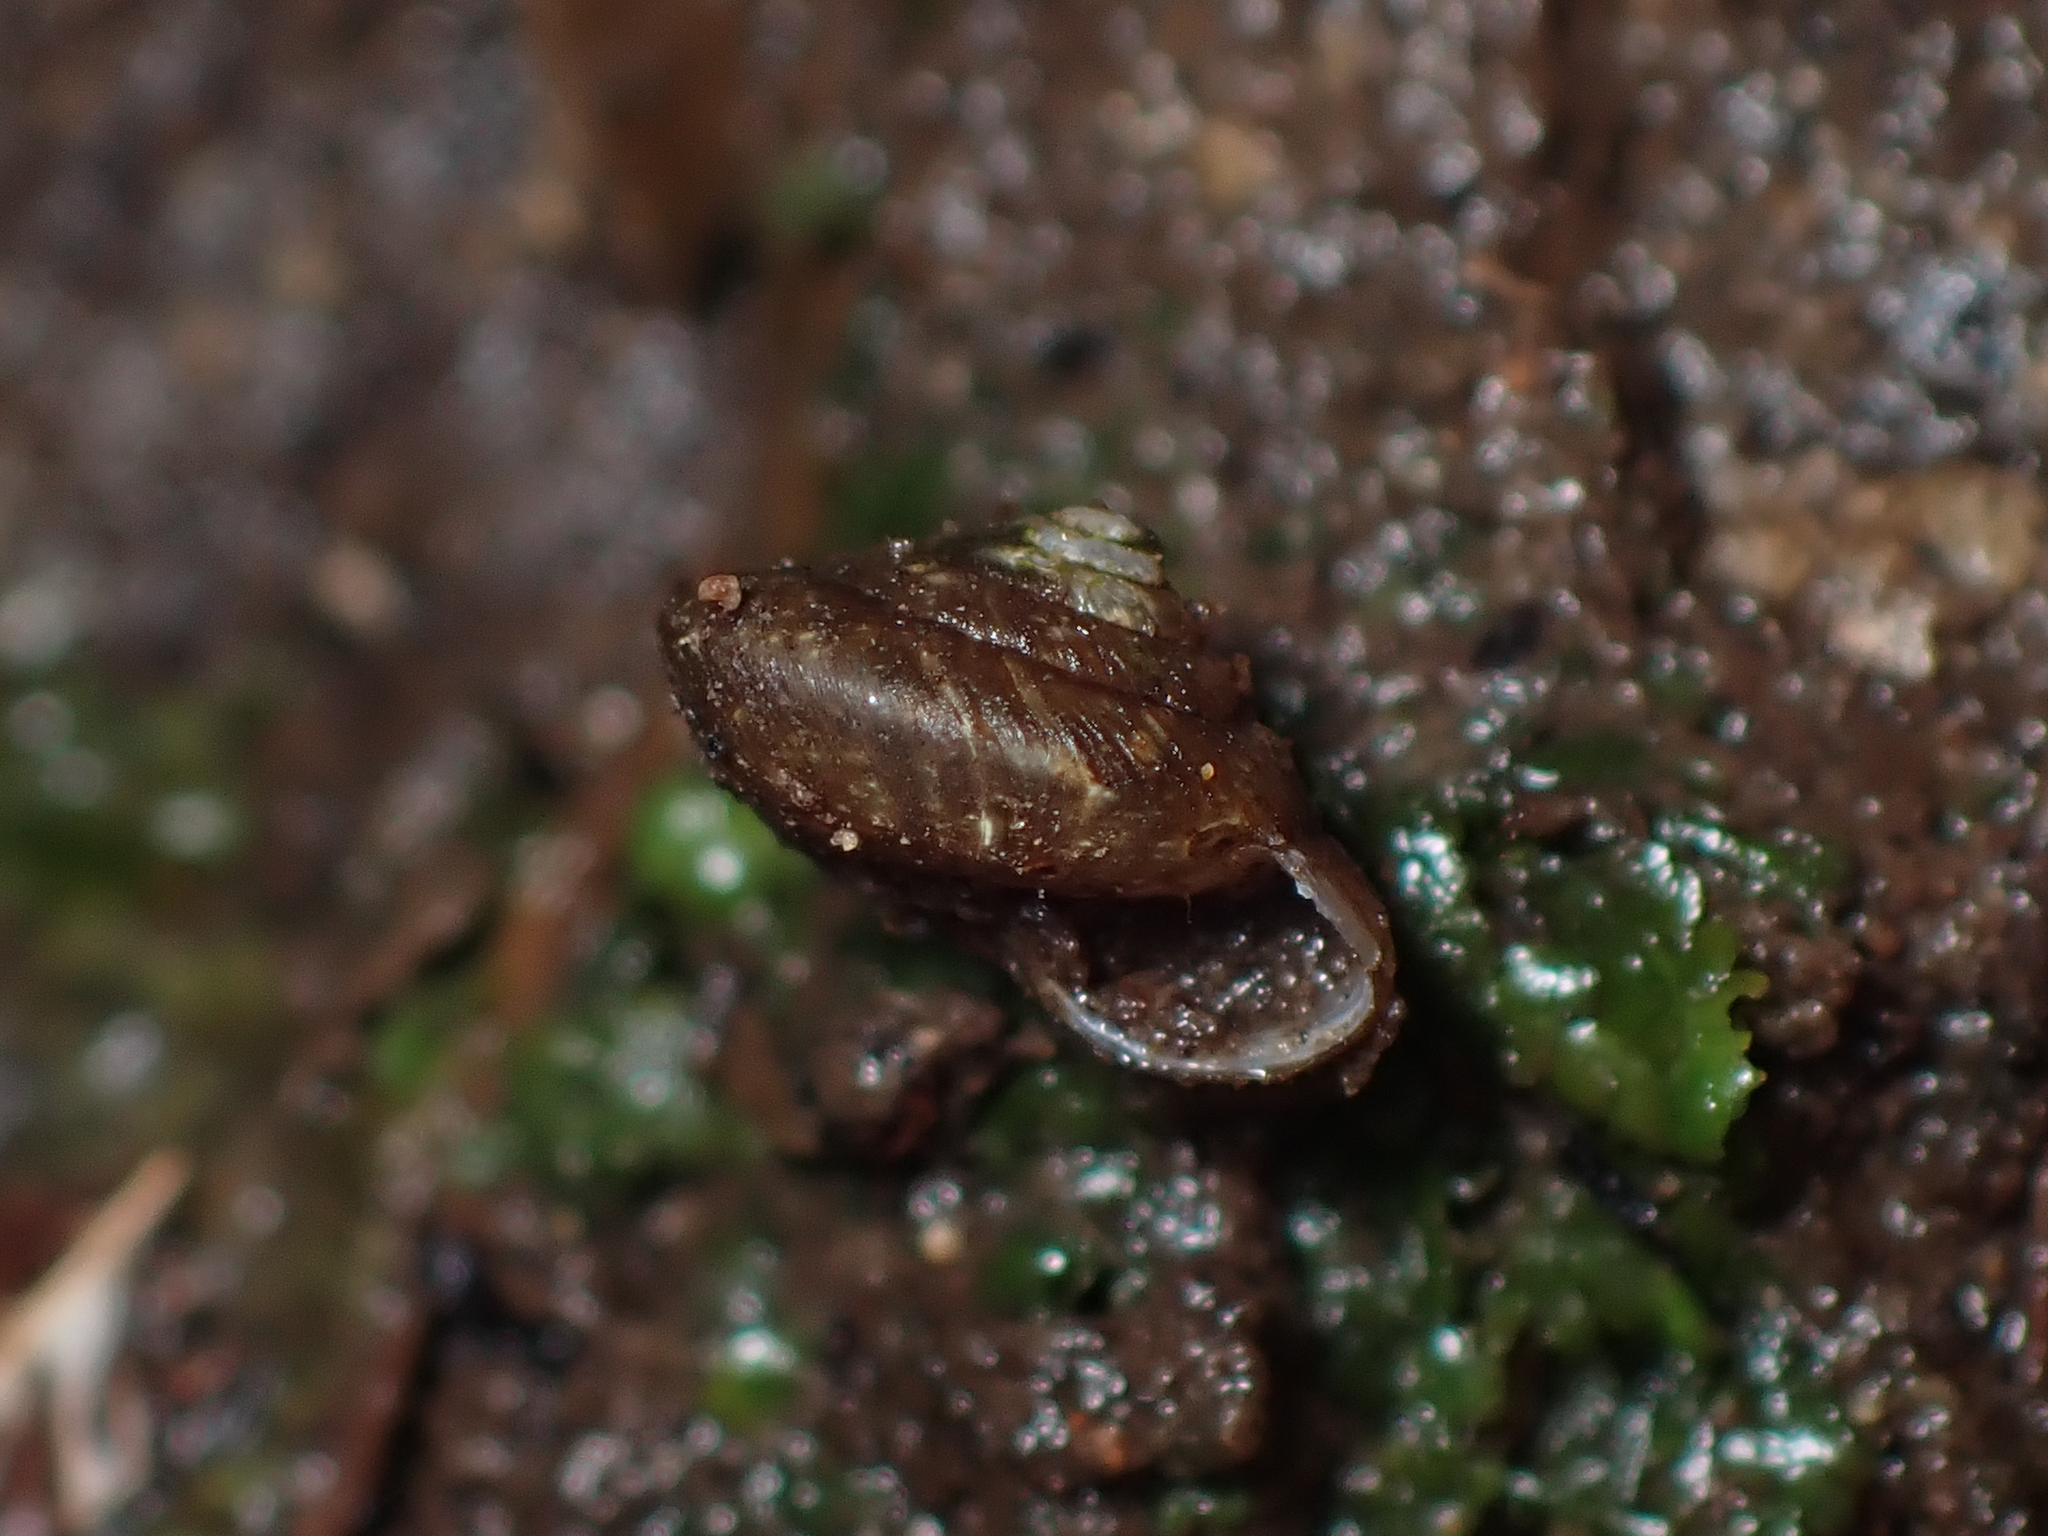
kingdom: Animalia
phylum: Mollusca
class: Gastropoda
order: Stylommatophora
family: Charopidae
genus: Therasiella
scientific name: Therasiella tamora
